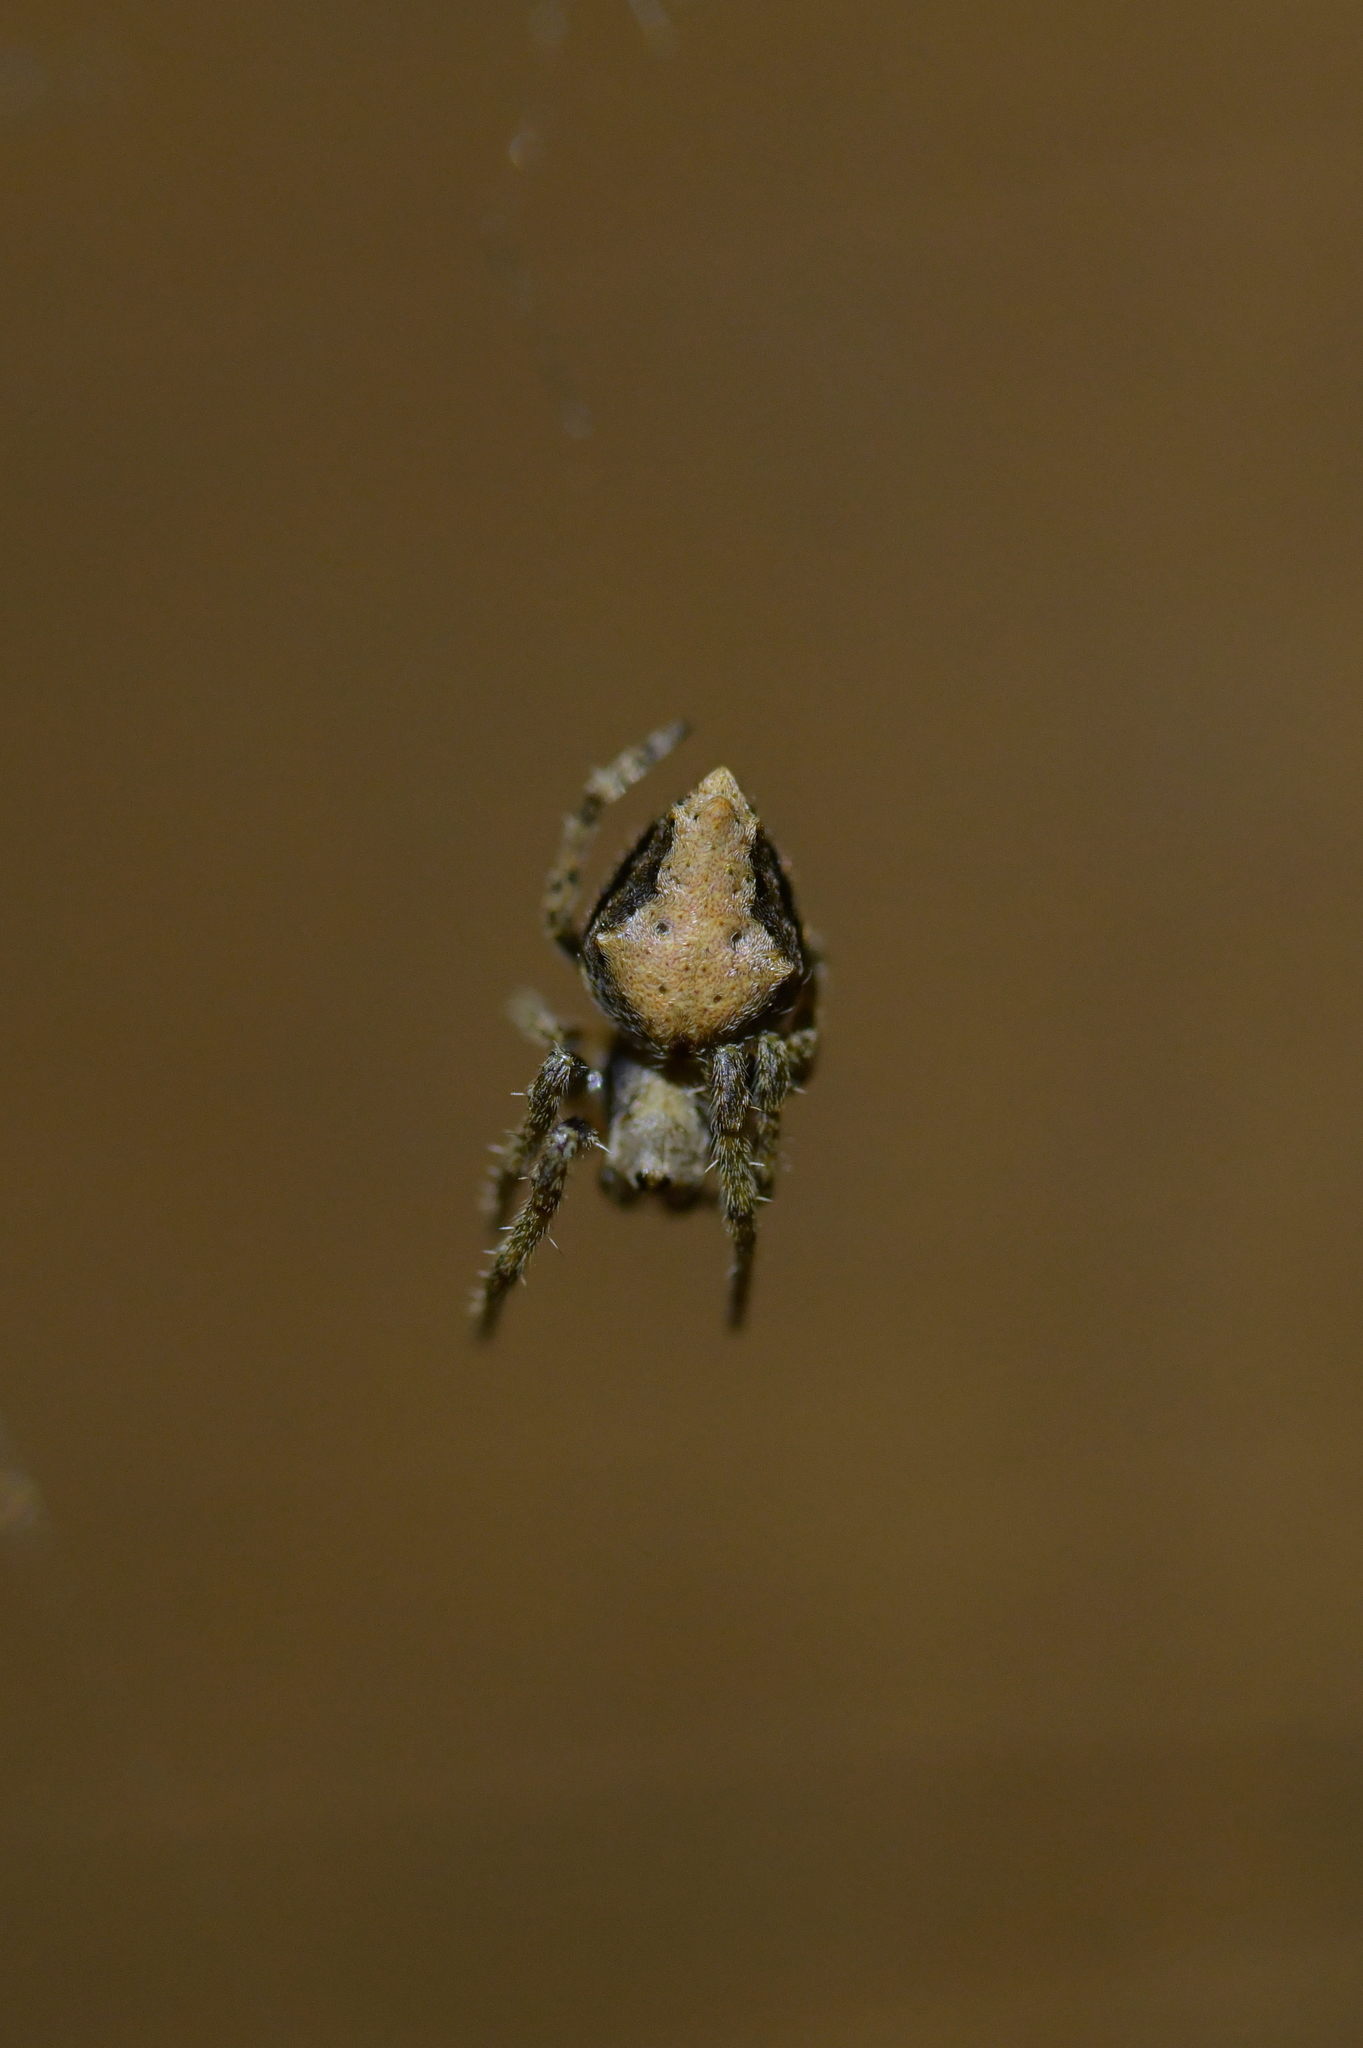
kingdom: Animalia
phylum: Arthropoda
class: Arachnida
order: Araneae
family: Araneidae
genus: Eriophora
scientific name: Eriophora pustulosa
